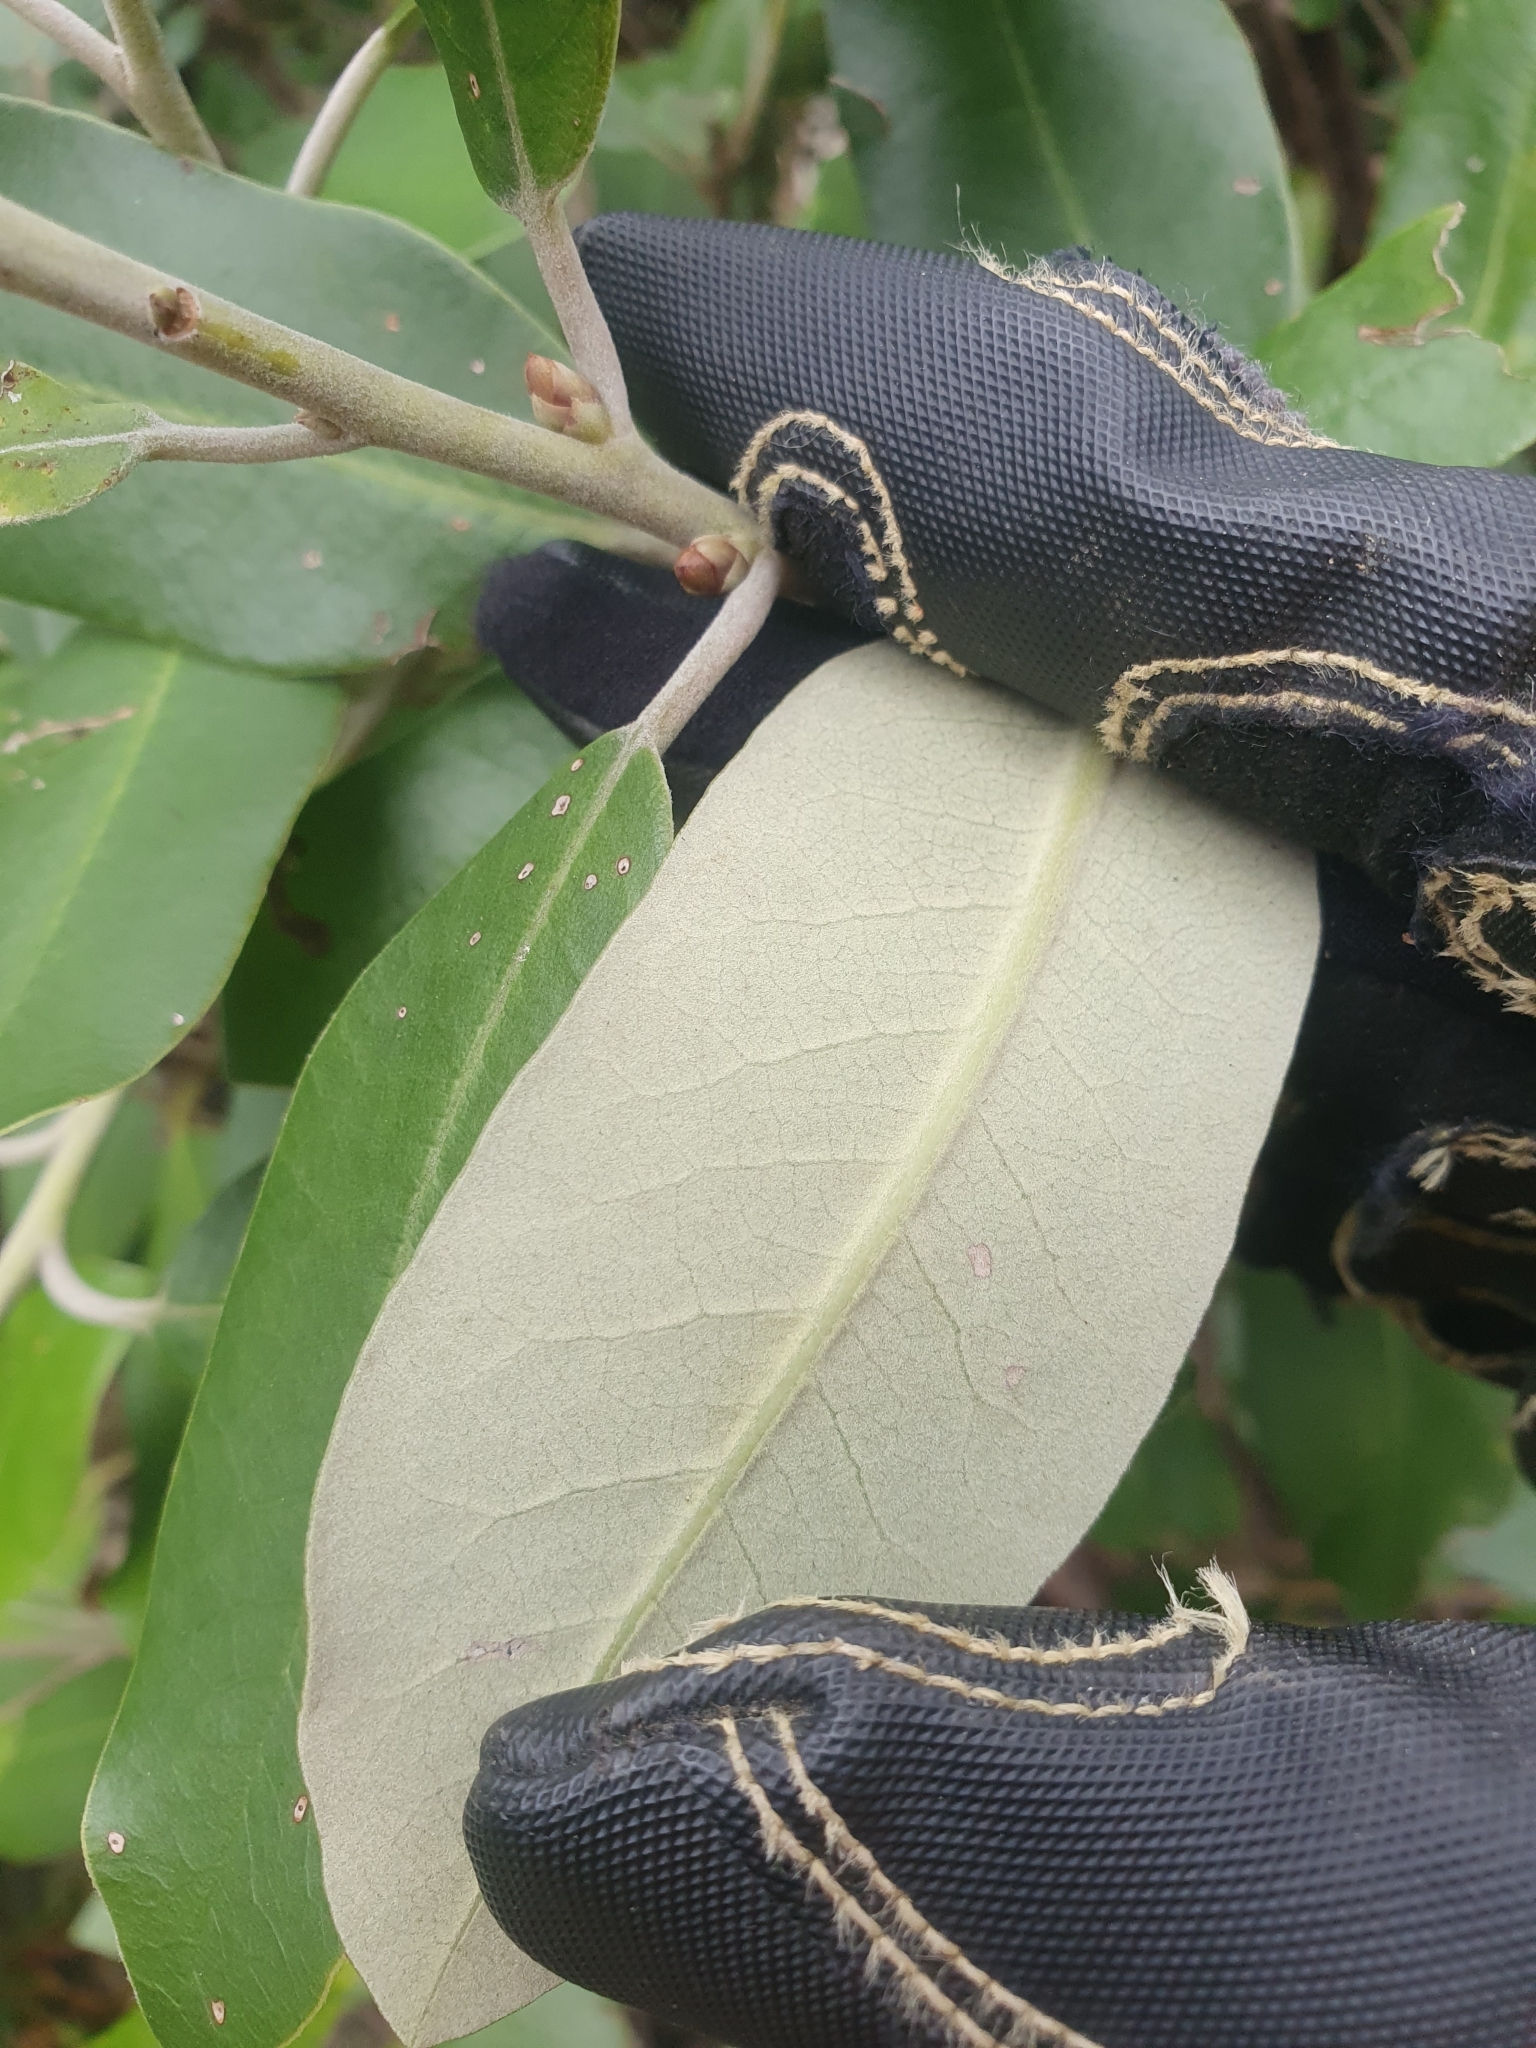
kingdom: Plantae
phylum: Tracheophyta
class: Magnoliopsida
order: Apiales
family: Pittosporaceae
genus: Pittosporum
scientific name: Pittosporum ralphii
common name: Ralph's desertwillow
